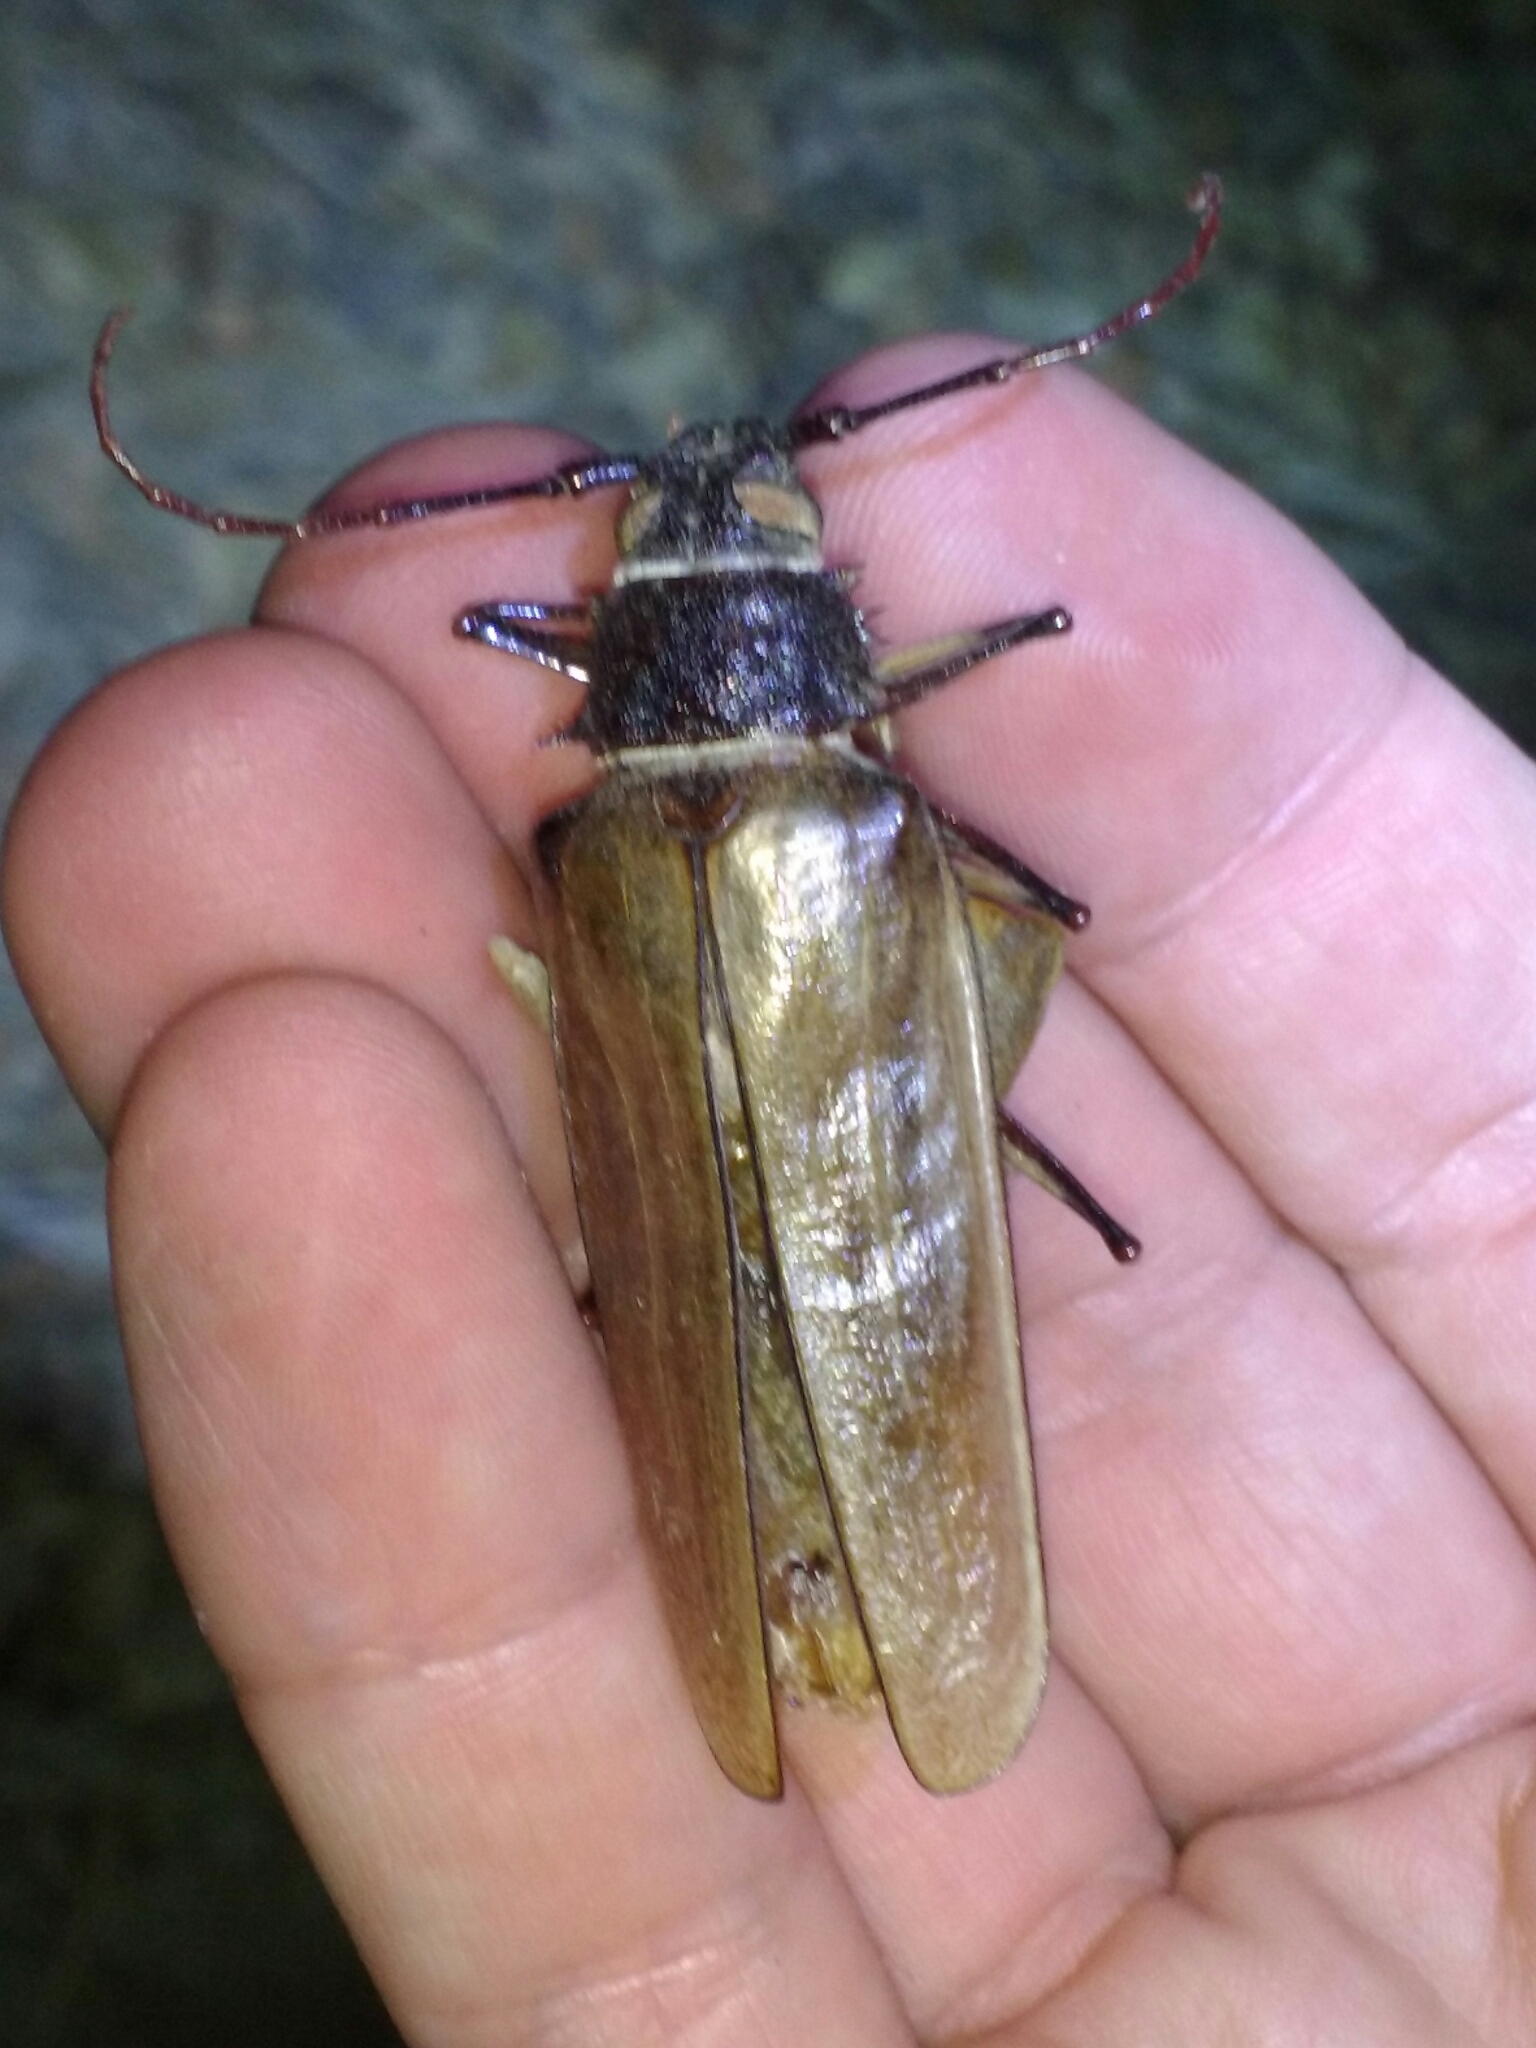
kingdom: Animalia
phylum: Arthropoda
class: Insecta
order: Coleoptera
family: Cerambycidae
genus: Trichocnemis
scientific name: Trichocnemis spiculatus
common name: Long-horned beetle
